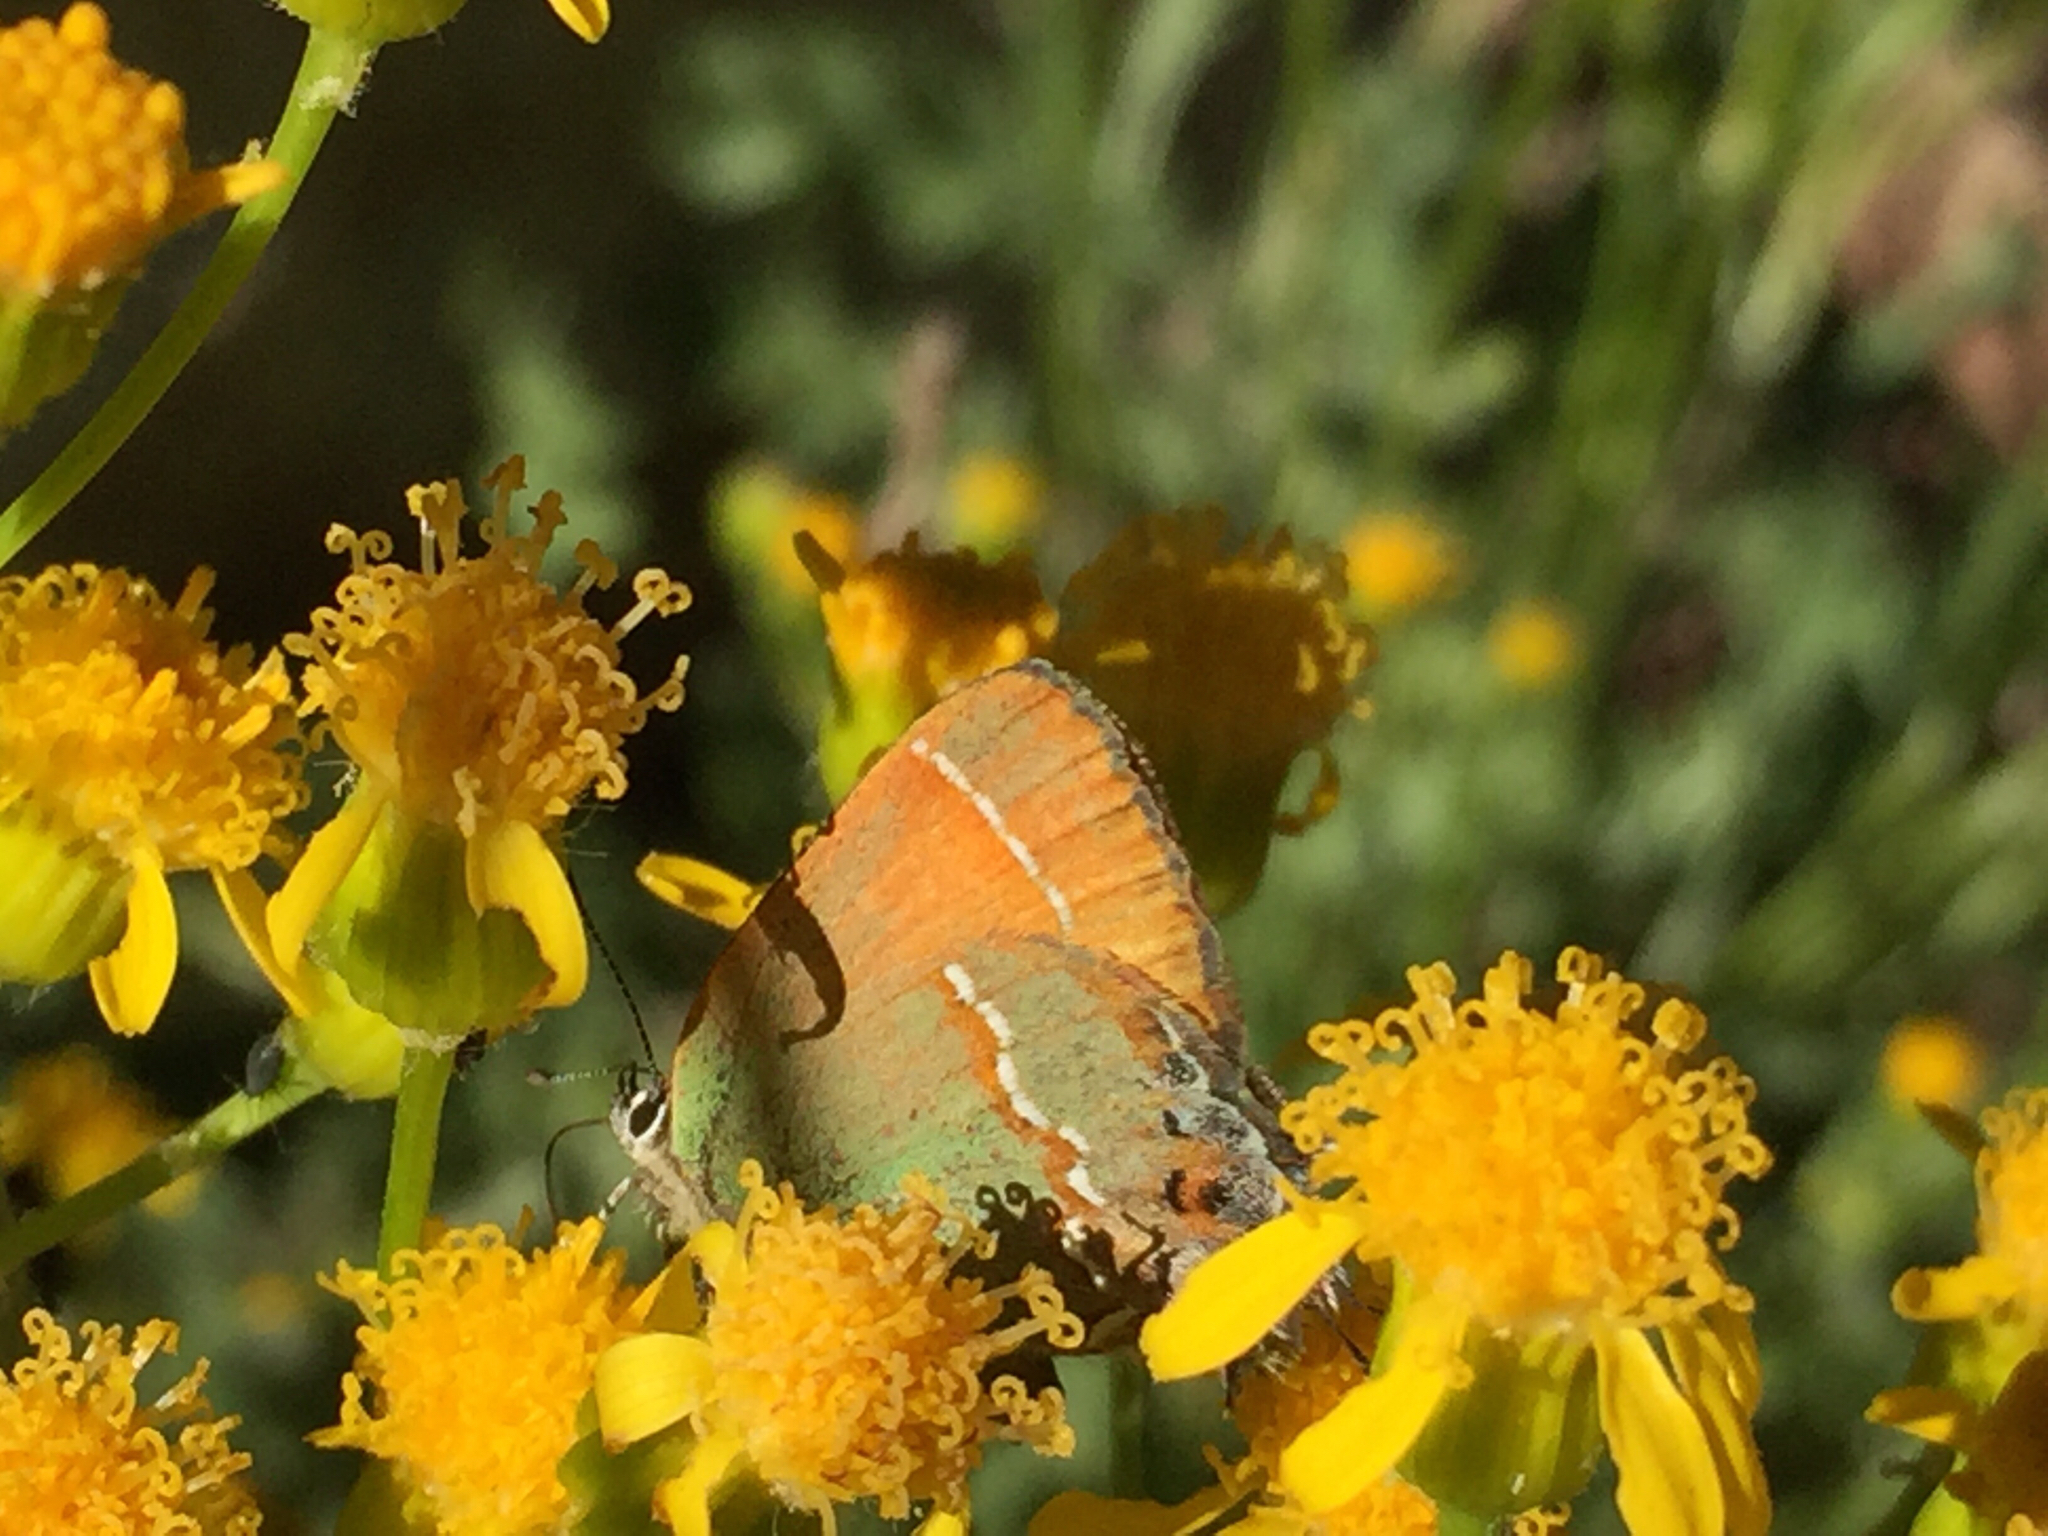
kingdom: Animalia
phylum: Arthropoda
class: Insecta
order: Lepidoptera
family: Lycaenidae
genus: Mitoura
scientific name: Mitoura siva
